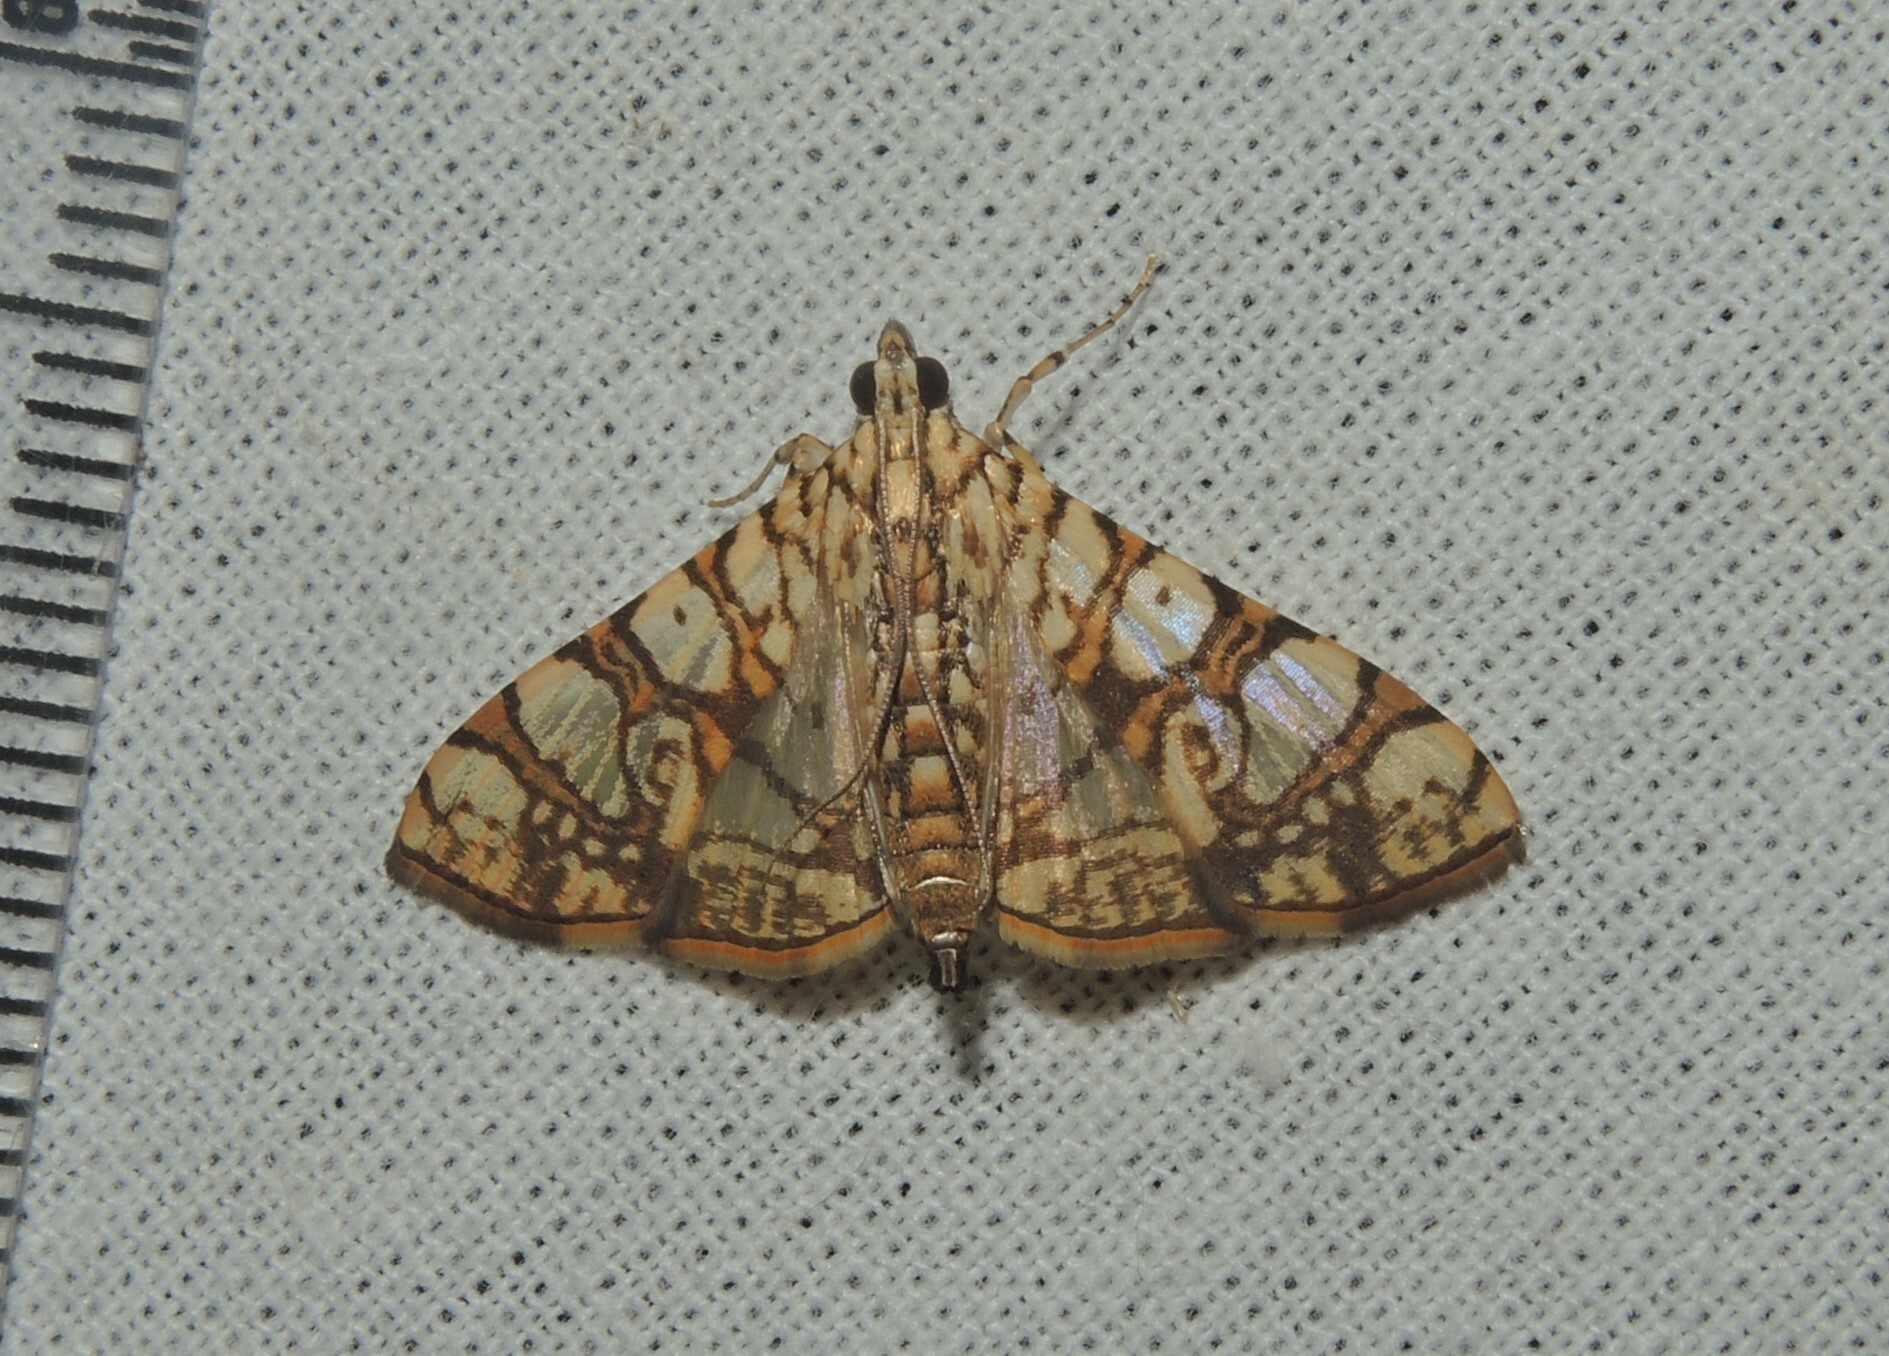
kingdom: Animalia
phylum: Arthropoda
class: Insecta
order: Lepidoptera
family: Crambidae
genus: Glyphodes
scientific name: Glyphodes caesalis
